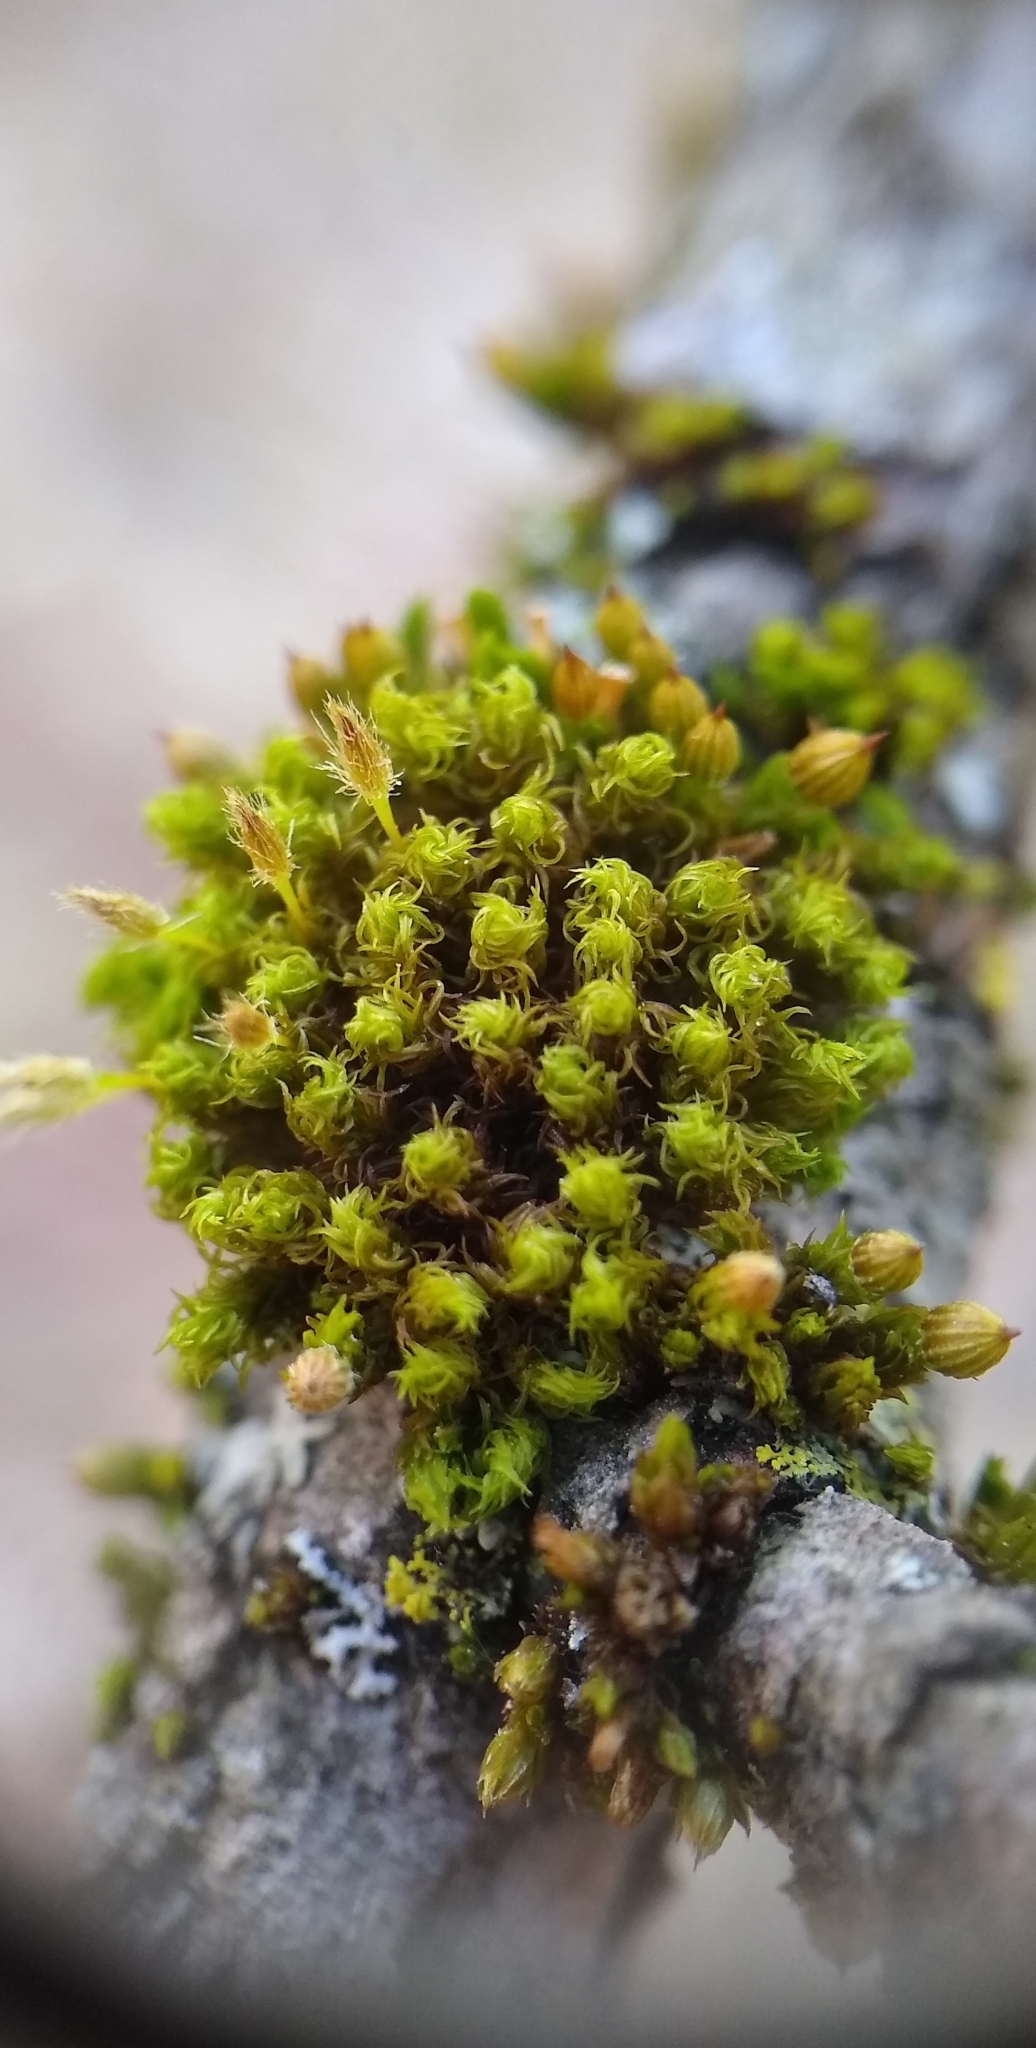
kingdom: Plantae
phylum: Bryophyta
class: Bryopsida
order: Orthotrichales
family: Orthotrichaceae
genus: Ulota
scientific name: Ulota crispa
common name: Crisped pincushion moss
